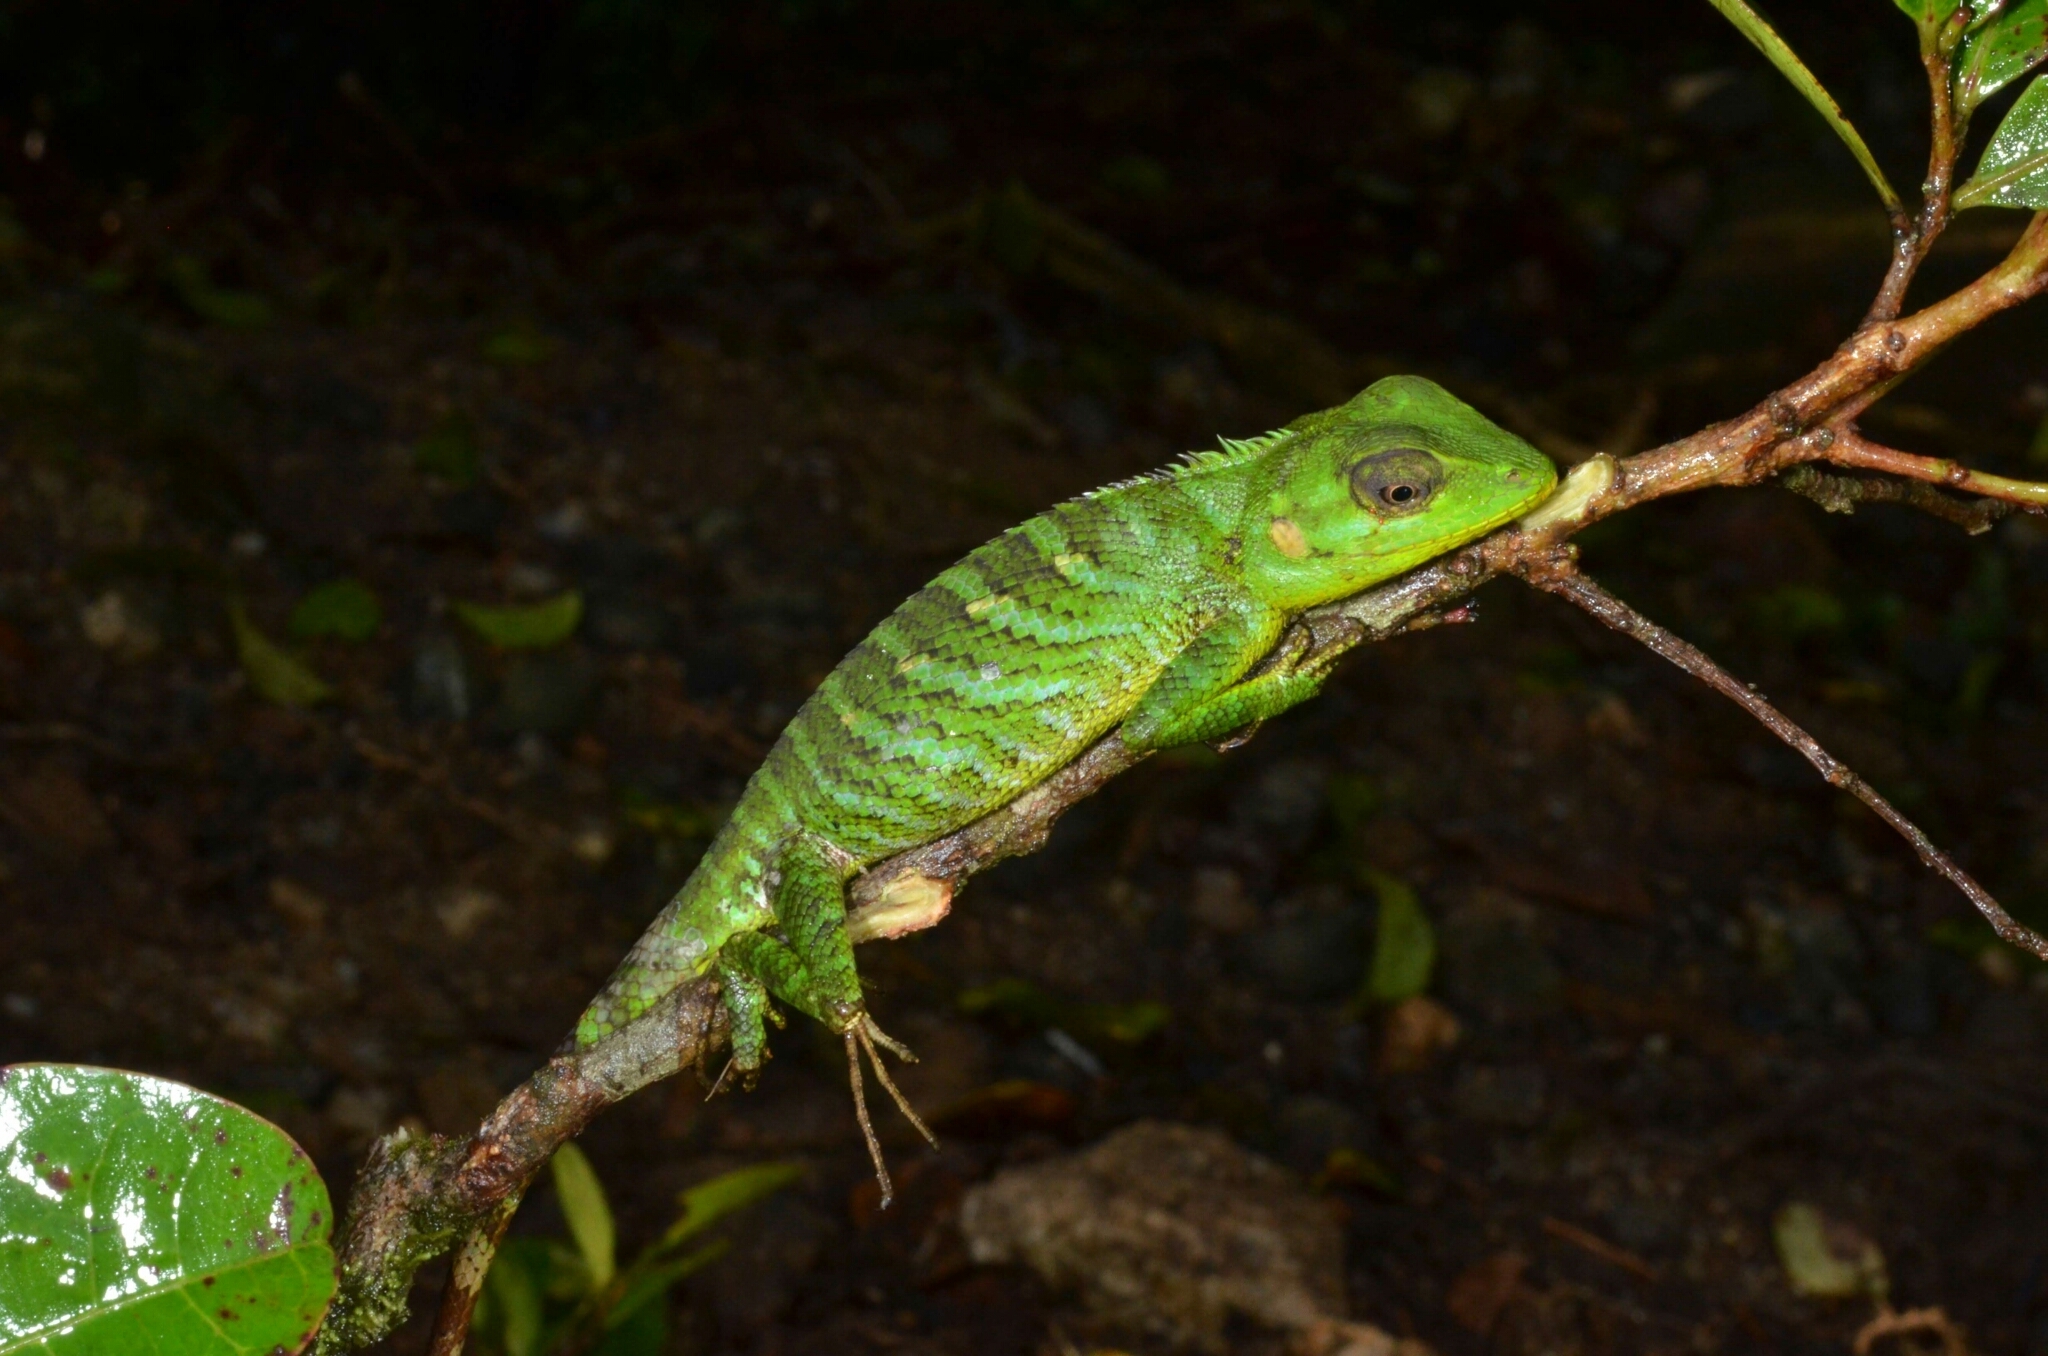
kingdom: Animalia
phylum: Chordata
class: Squamata
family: Agamidae
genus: Calotes
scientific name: Calotes pethiyagodai
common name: Pethiyagoda’s crestless lizard
